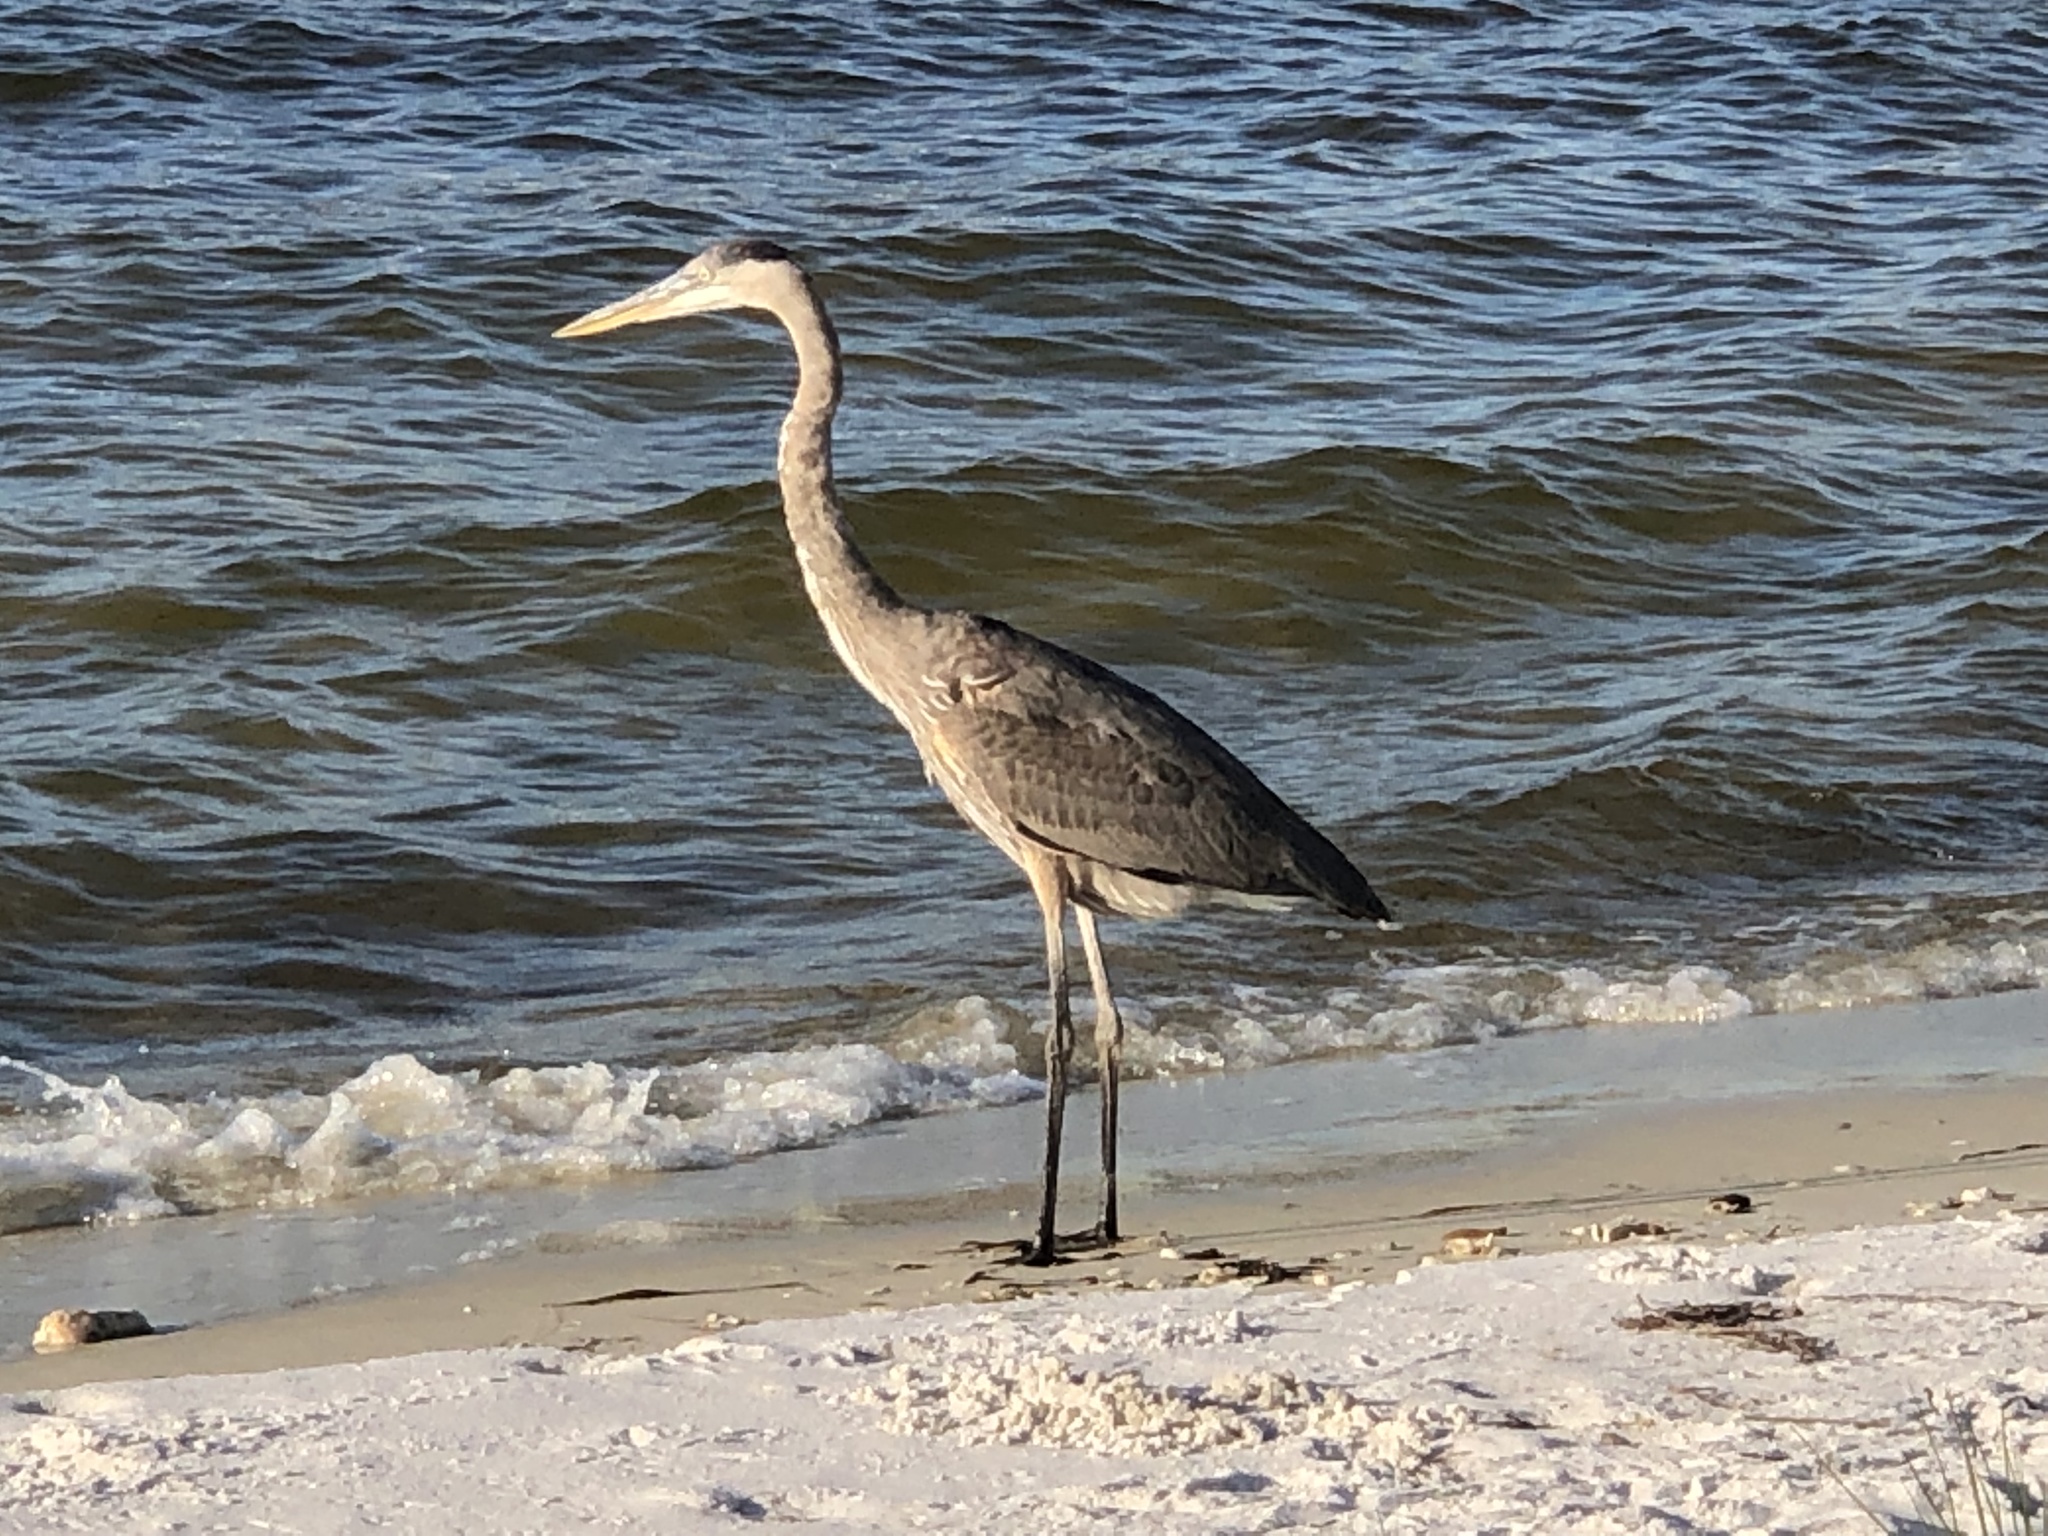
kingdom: Animalia
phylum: Chordata
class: Aves
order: Pelecaniformes
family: Ardeidae
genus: Ardea
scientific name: Ardea herodias
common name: Great blue heron
